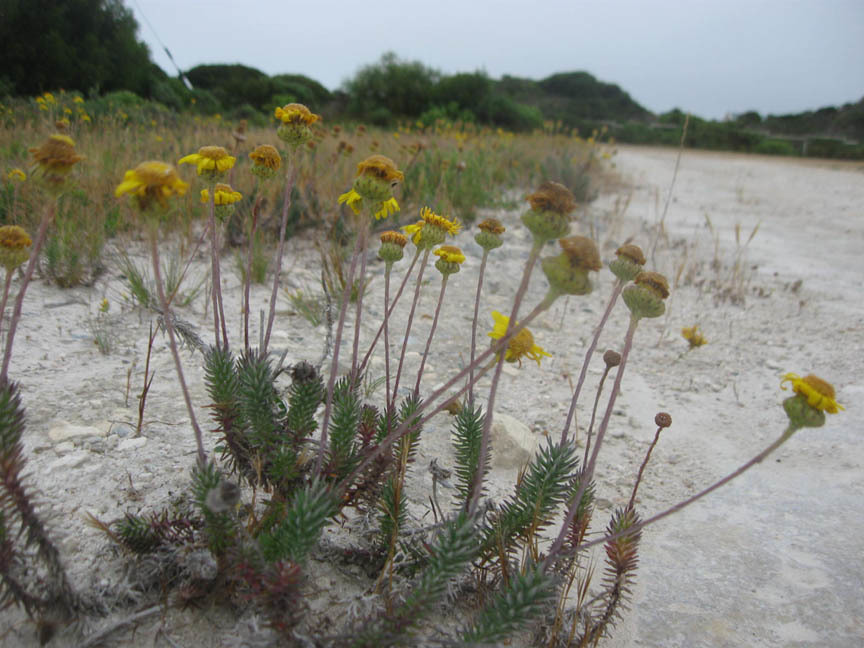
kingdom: Plantae
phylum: Tracheophyta
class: Magnoliopsida
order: Asterales
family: Asteraceae
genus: Senecio
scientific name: Senecio pillansii
